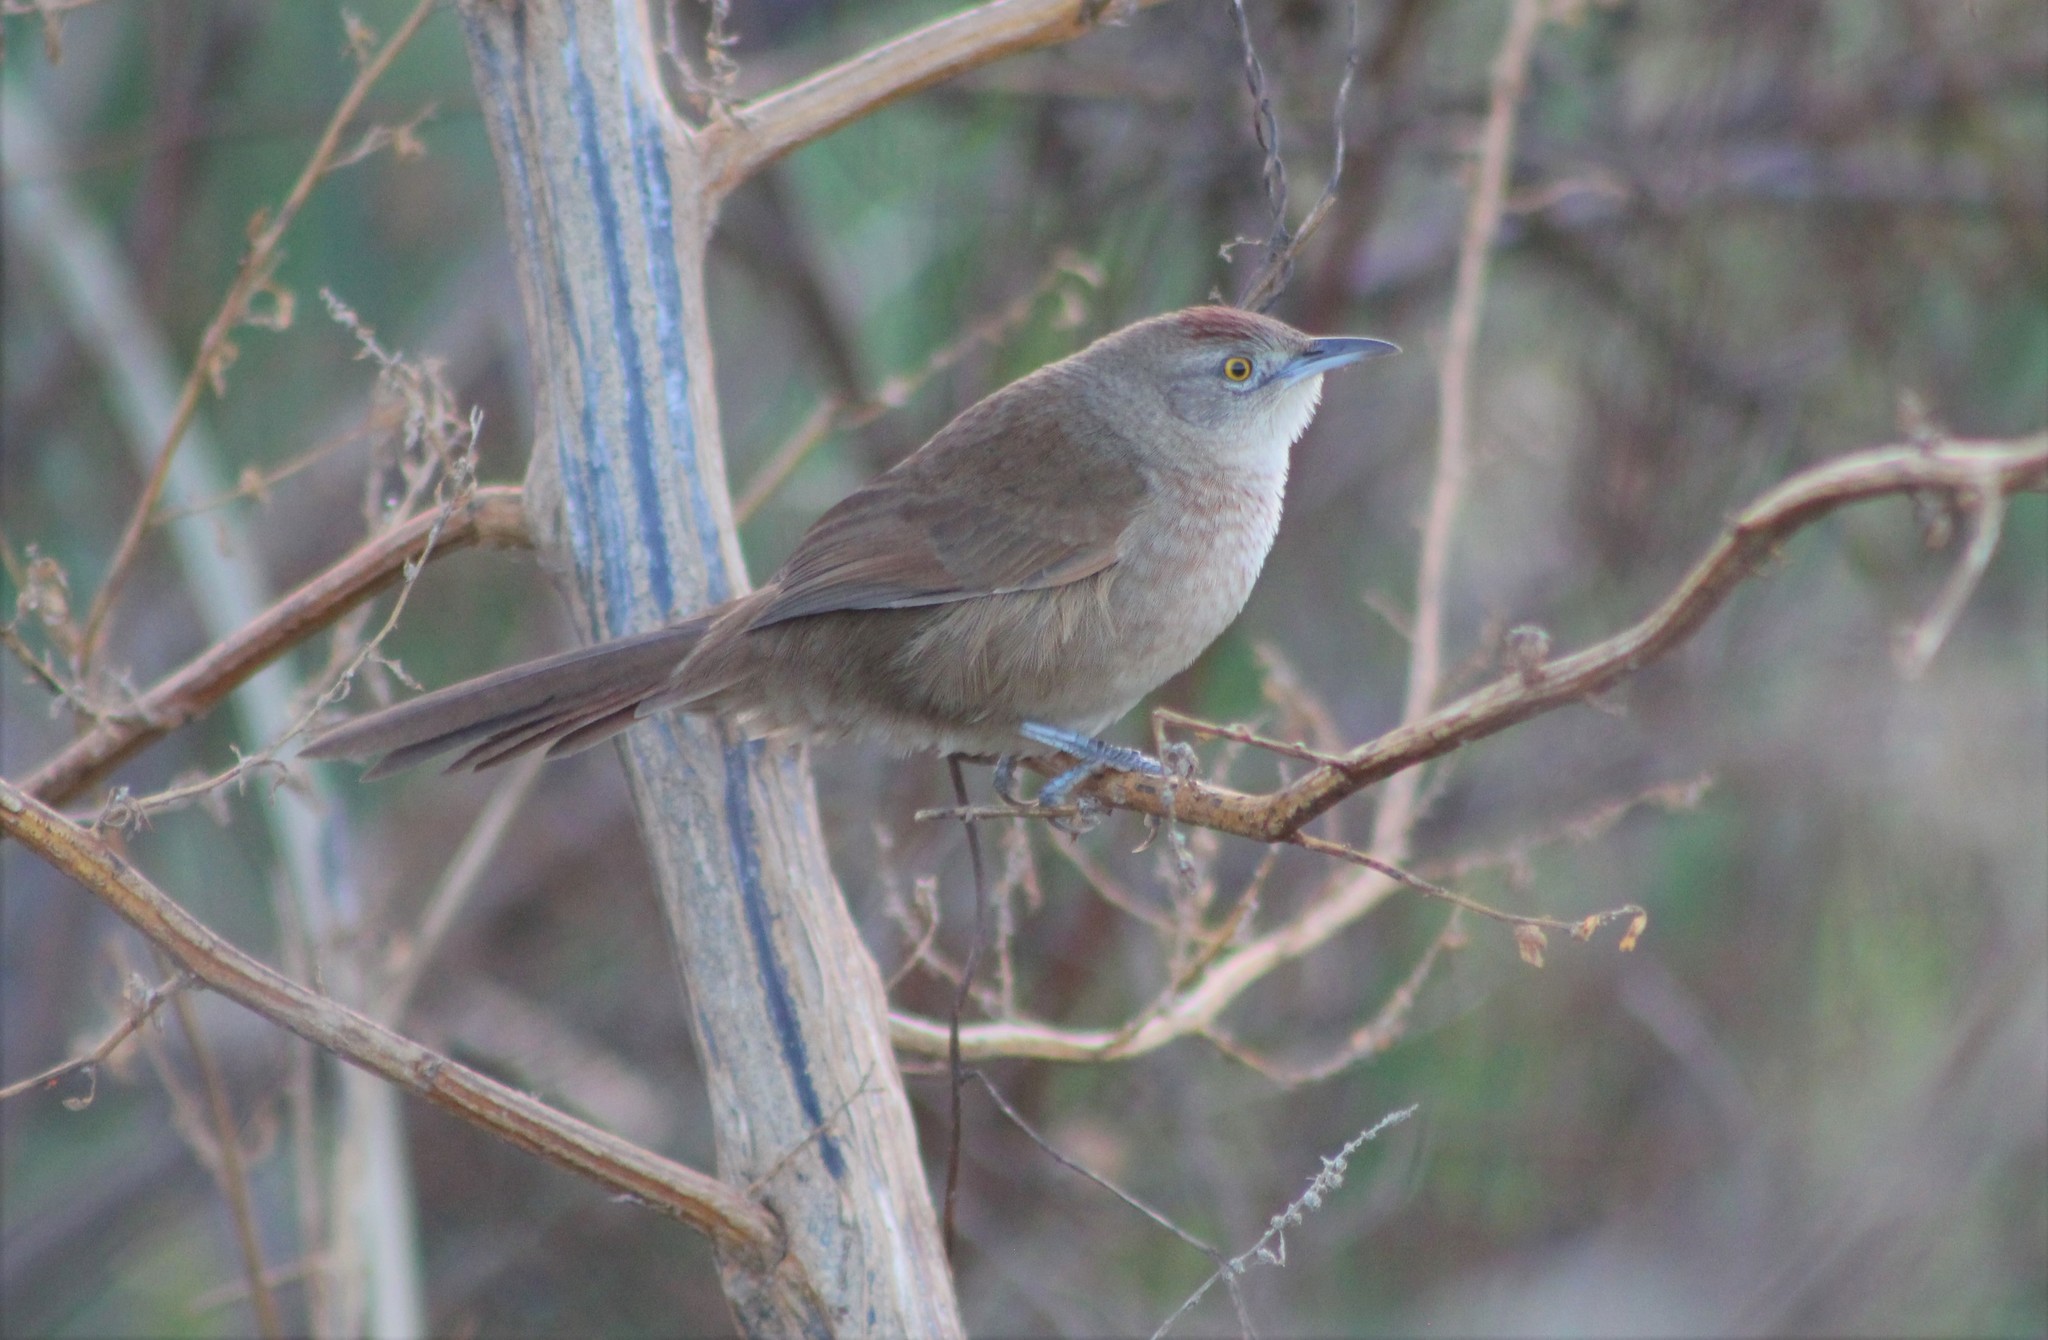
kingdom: Animalia
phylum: Chordata
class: Aves
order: Passeriformes
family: Furnariidae
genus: Phacellodomus
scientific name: Phacellodomus striaticollis
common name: Freckle-breasted thornbird
